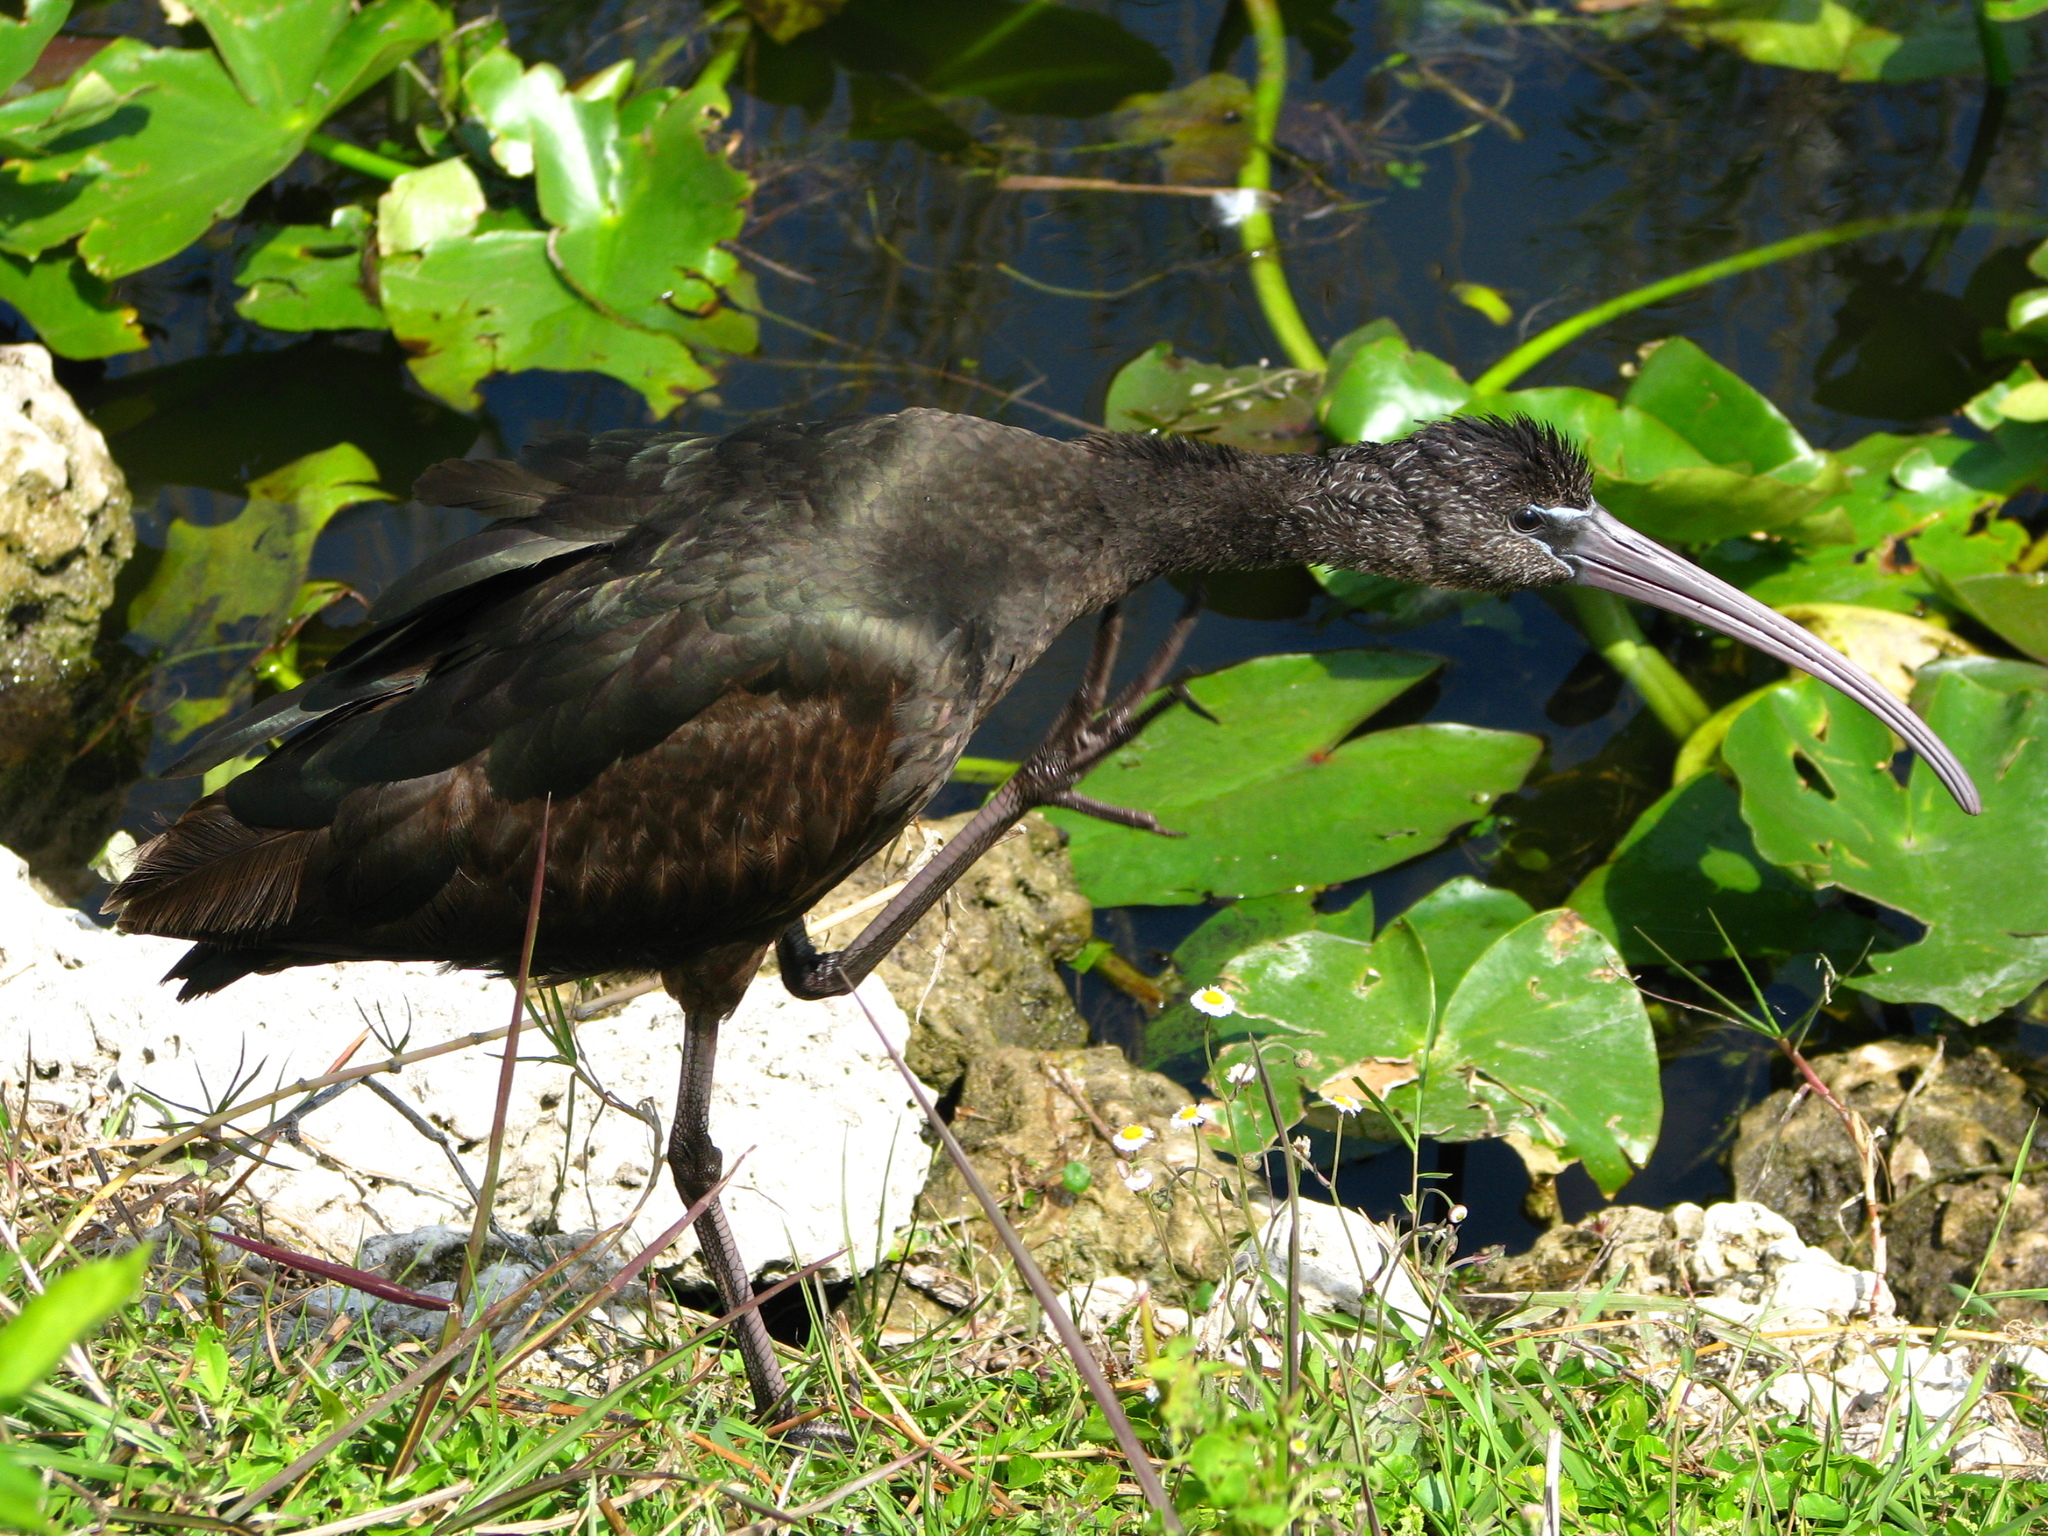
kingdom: Animalia
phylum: Chordata
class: Aves
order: Pelecaniformes
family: Threskiornithidae
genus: Plegadis
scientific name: Plegadis falcinellus
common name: Glossy ibis
